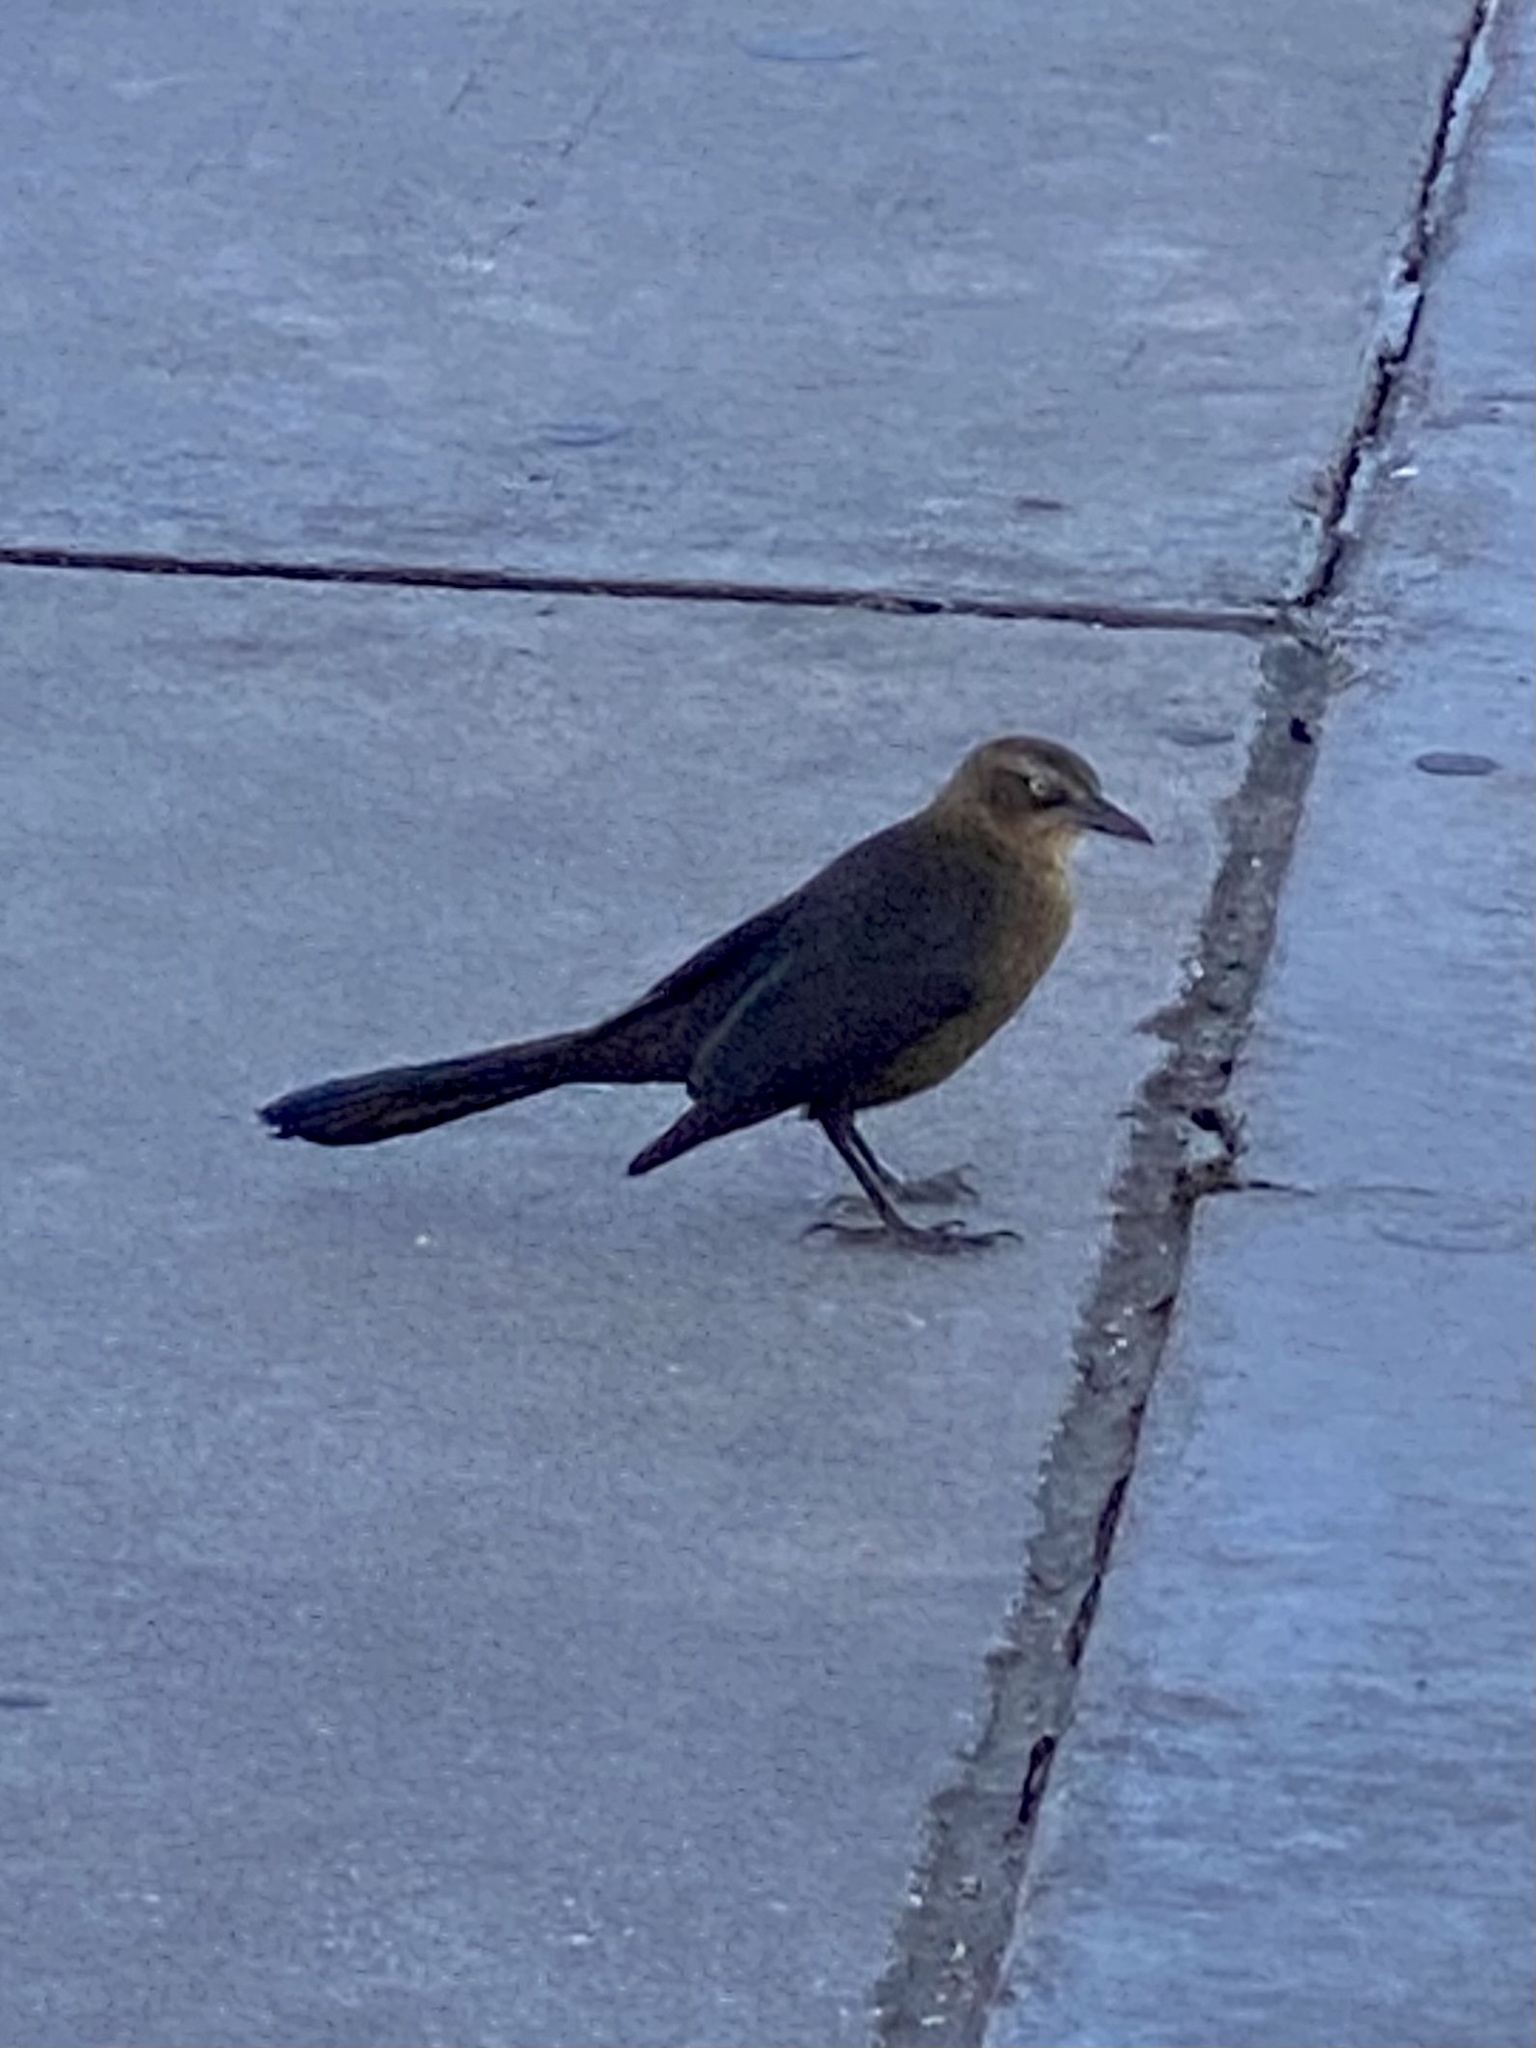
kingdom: Animalia
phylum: Chordata
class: Aves
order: Passeriformes
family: Icteridae
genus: Quiscalus
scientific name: Quiscalus mexicanus
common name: Great-tailed grackle
